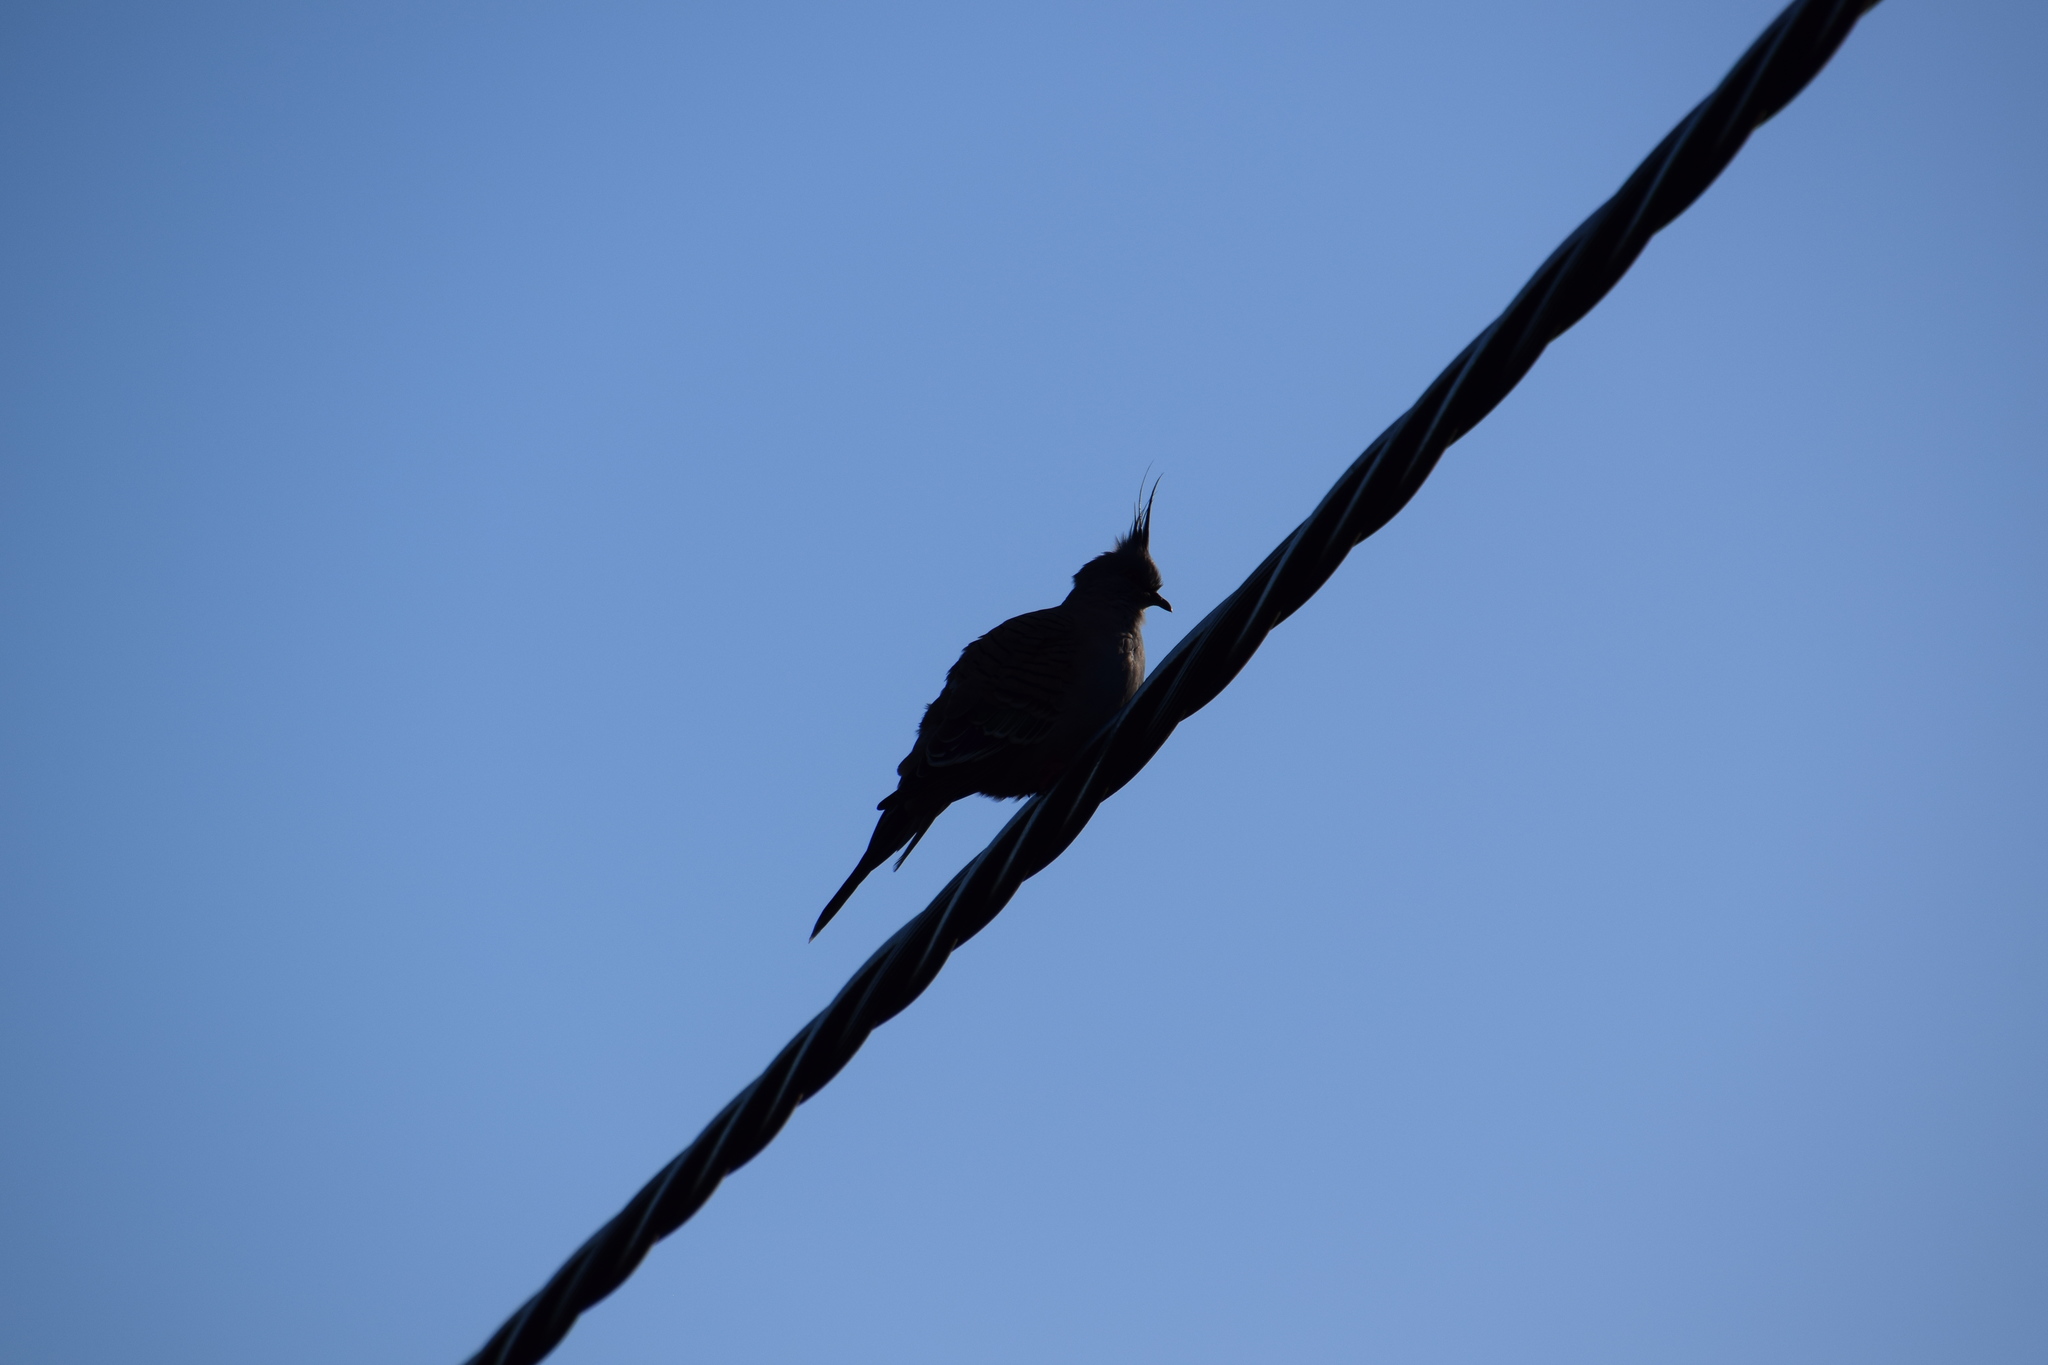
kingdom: Animalia
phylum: Chordata
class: Aves
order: Columbiformes
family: Columbidae
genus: Ocyphaps
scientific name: Ocyphaps lophotes
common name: Crested pigeon
